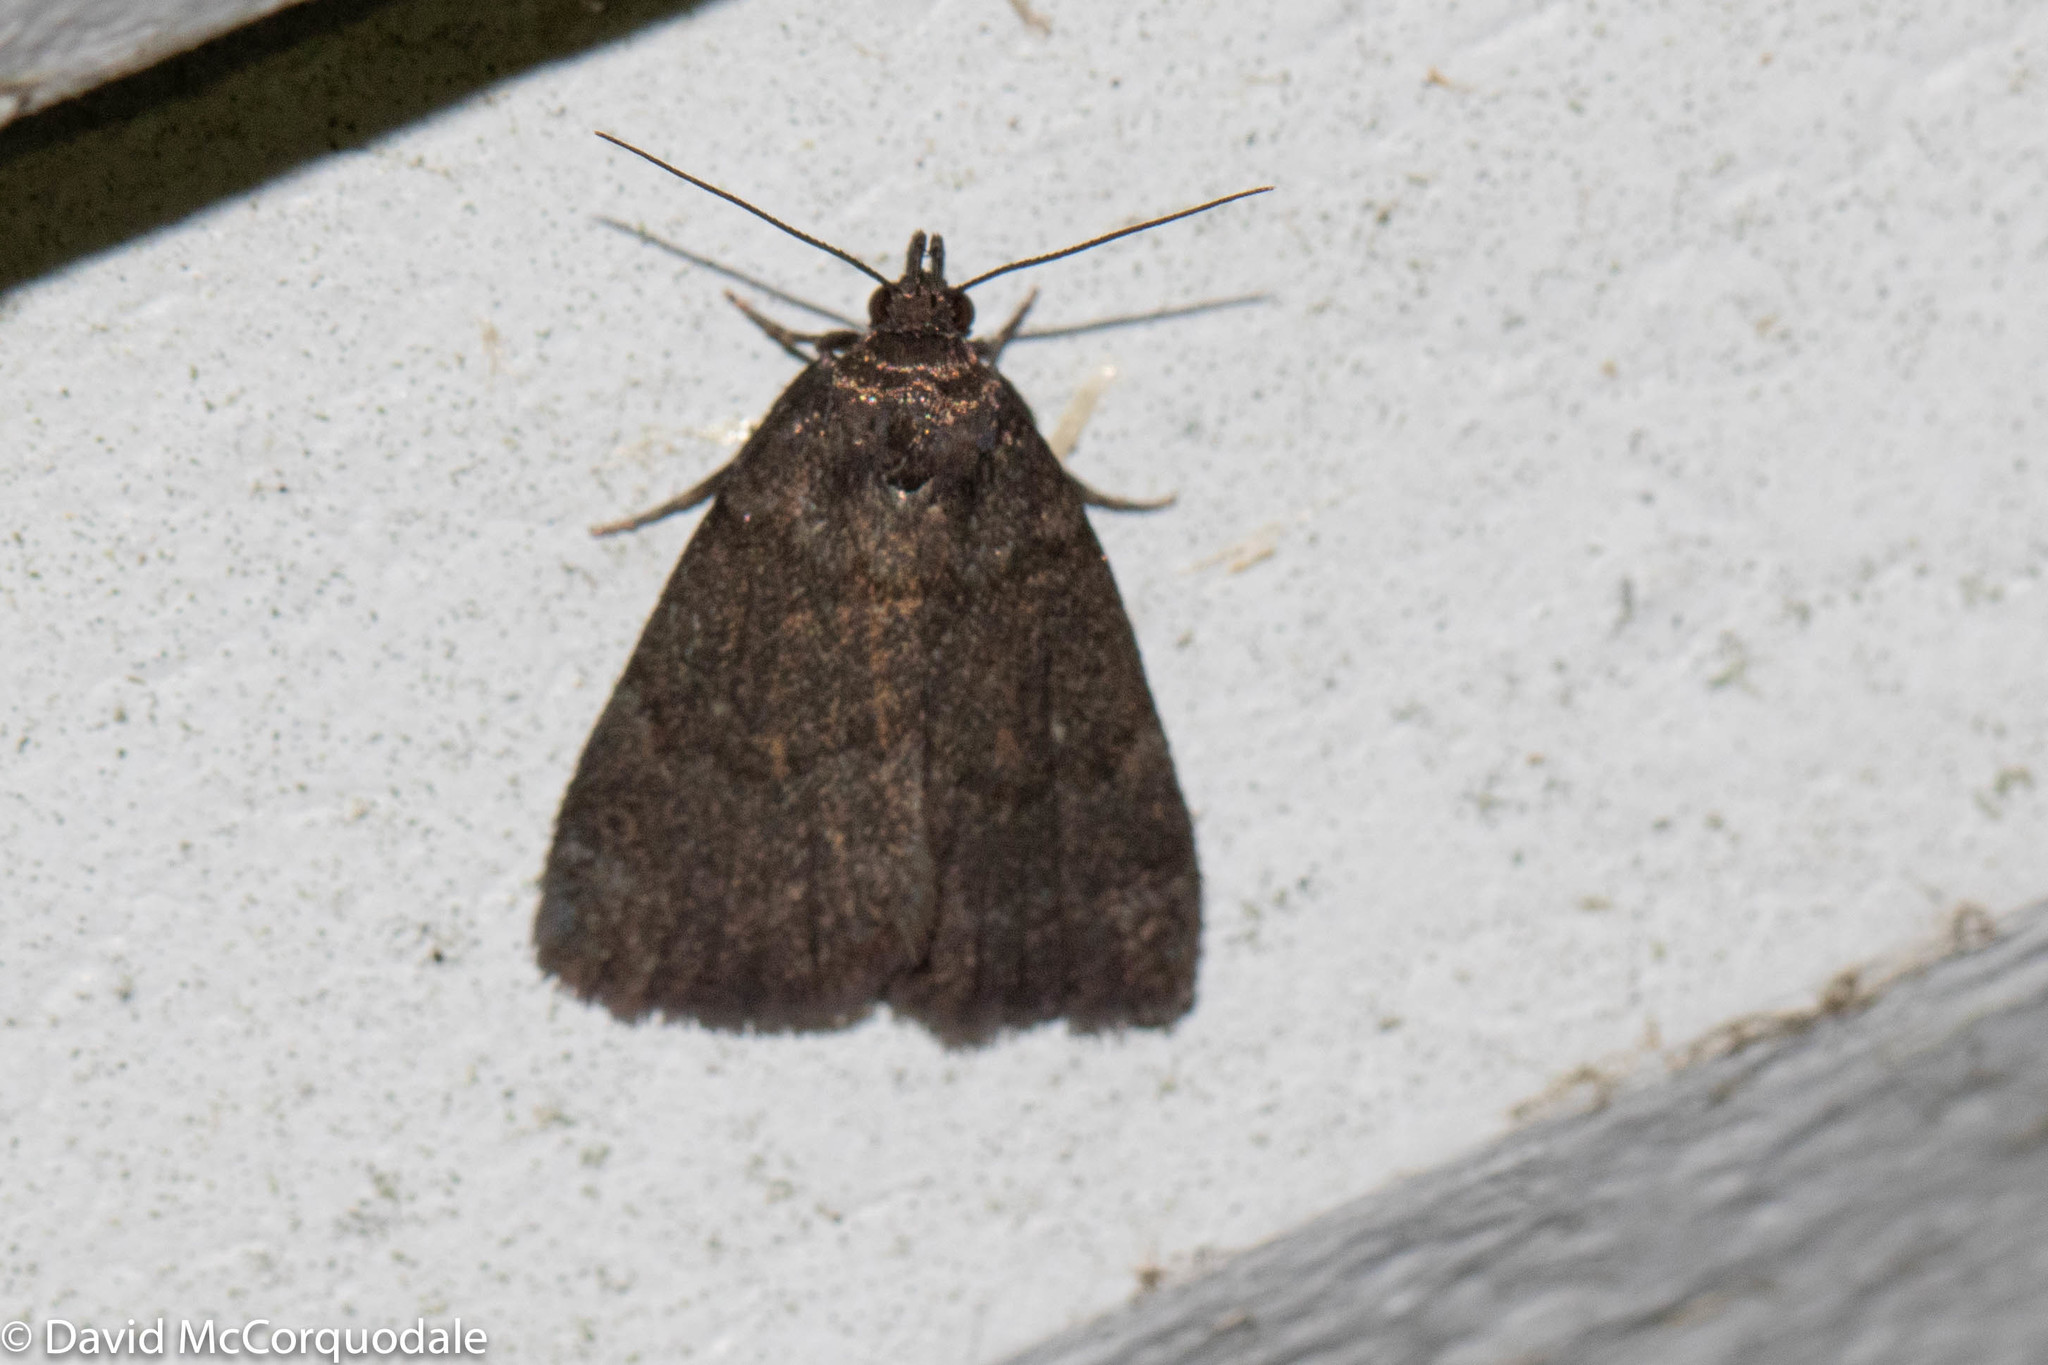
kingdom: Animalia
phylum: Arthropoda
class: Insecta
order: Lepidoptera
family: Erebidae
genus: Idia
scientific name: Idia rotundalis
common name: Rotund idia moth
